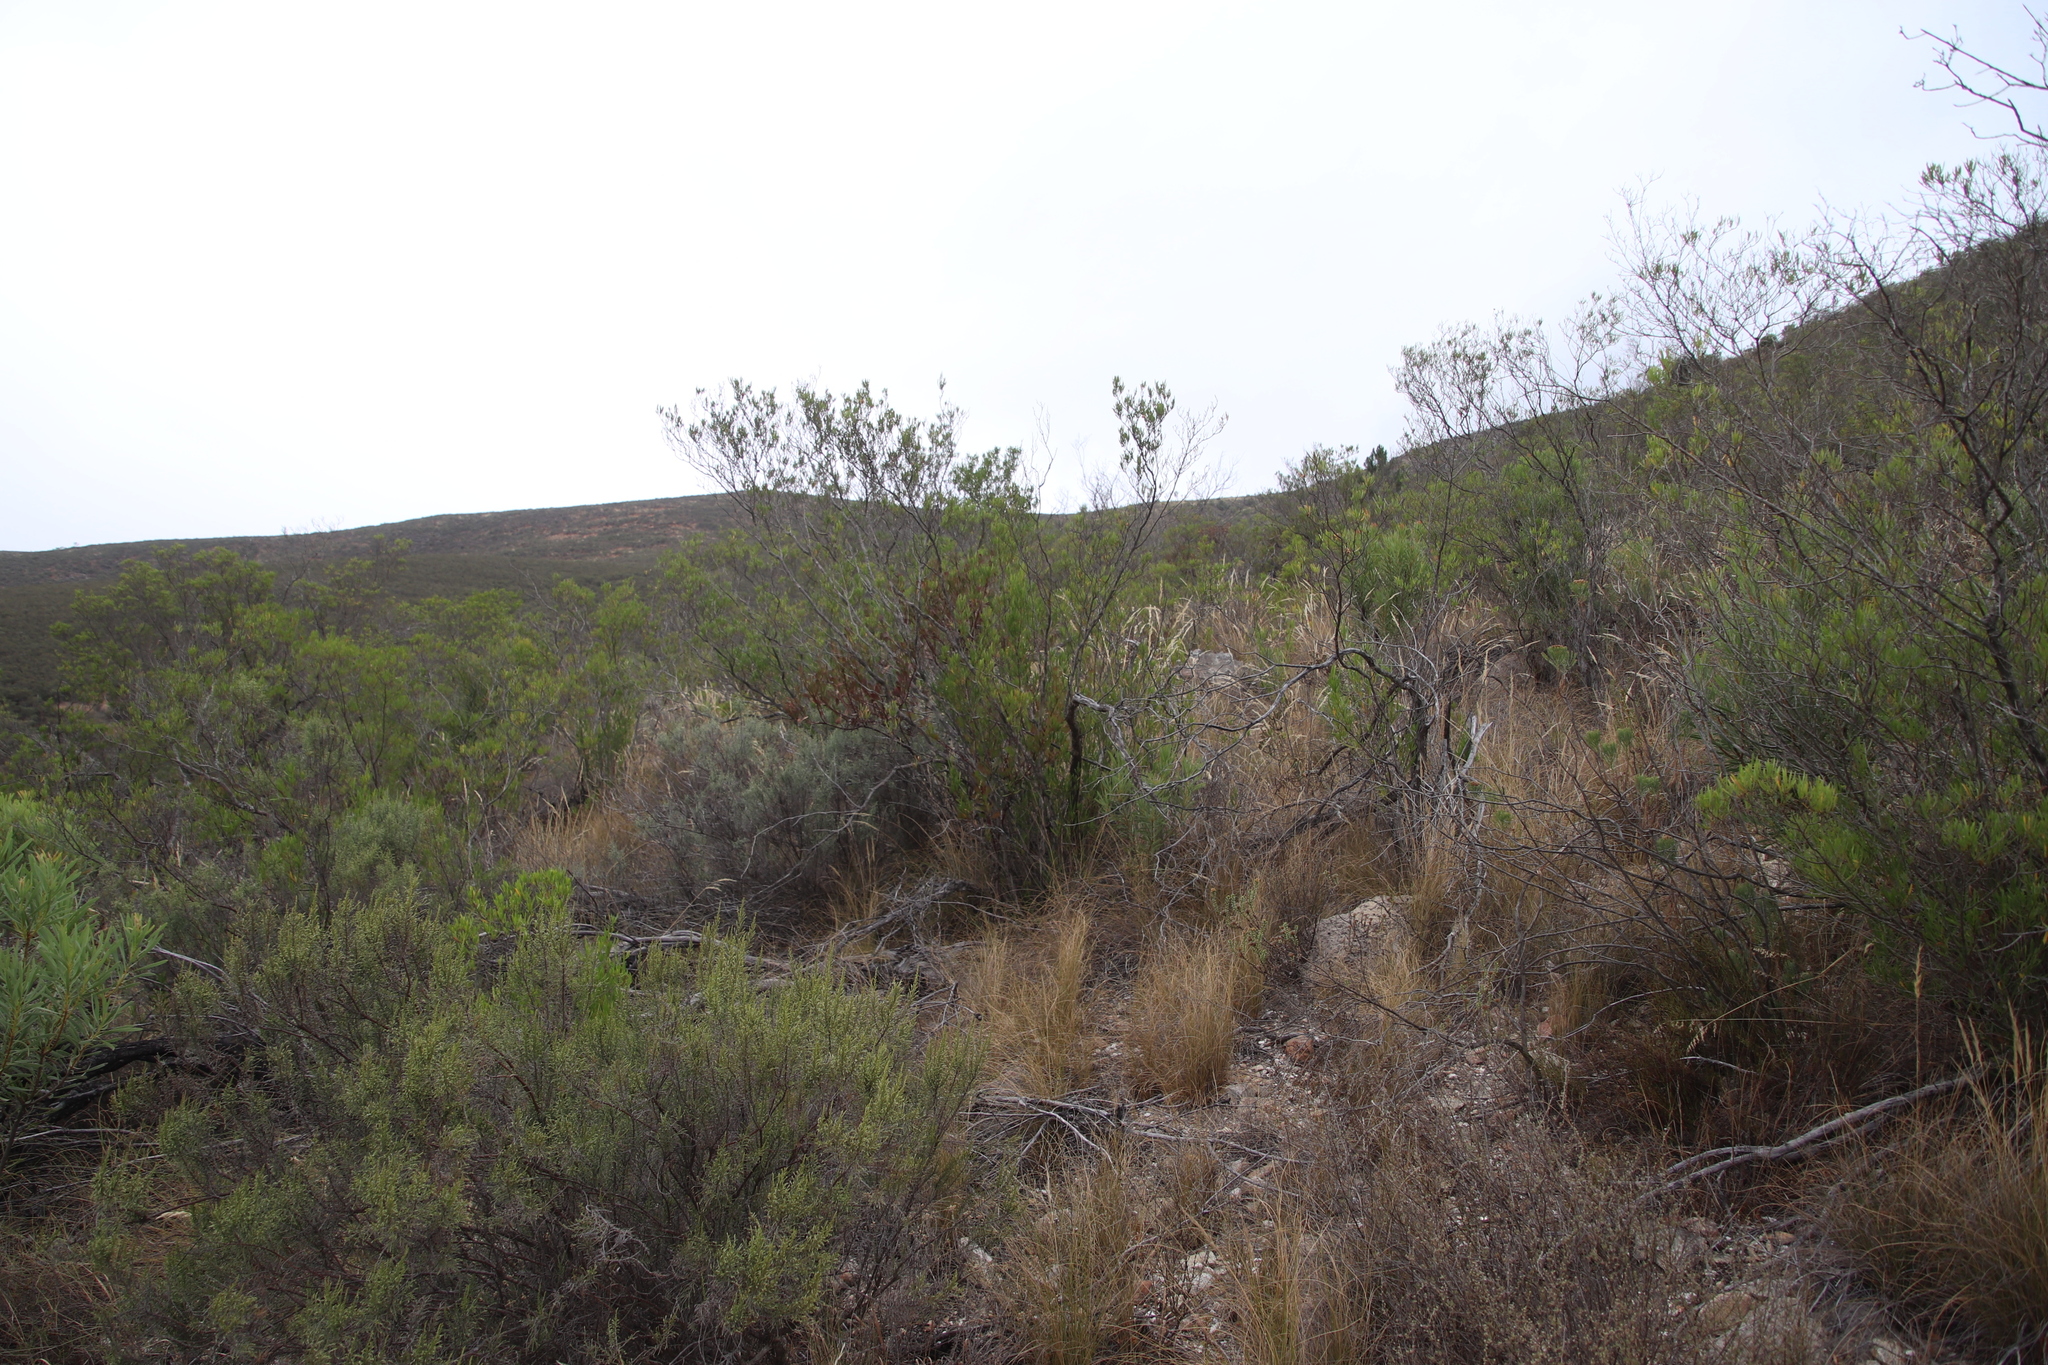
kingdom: Plantae
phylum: Tracheophyta
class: Magnoliopsida
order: Sapindales
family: Sapindaceae
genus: Dodonaea
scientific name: Dodonaea viscosa
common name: Hopbush
